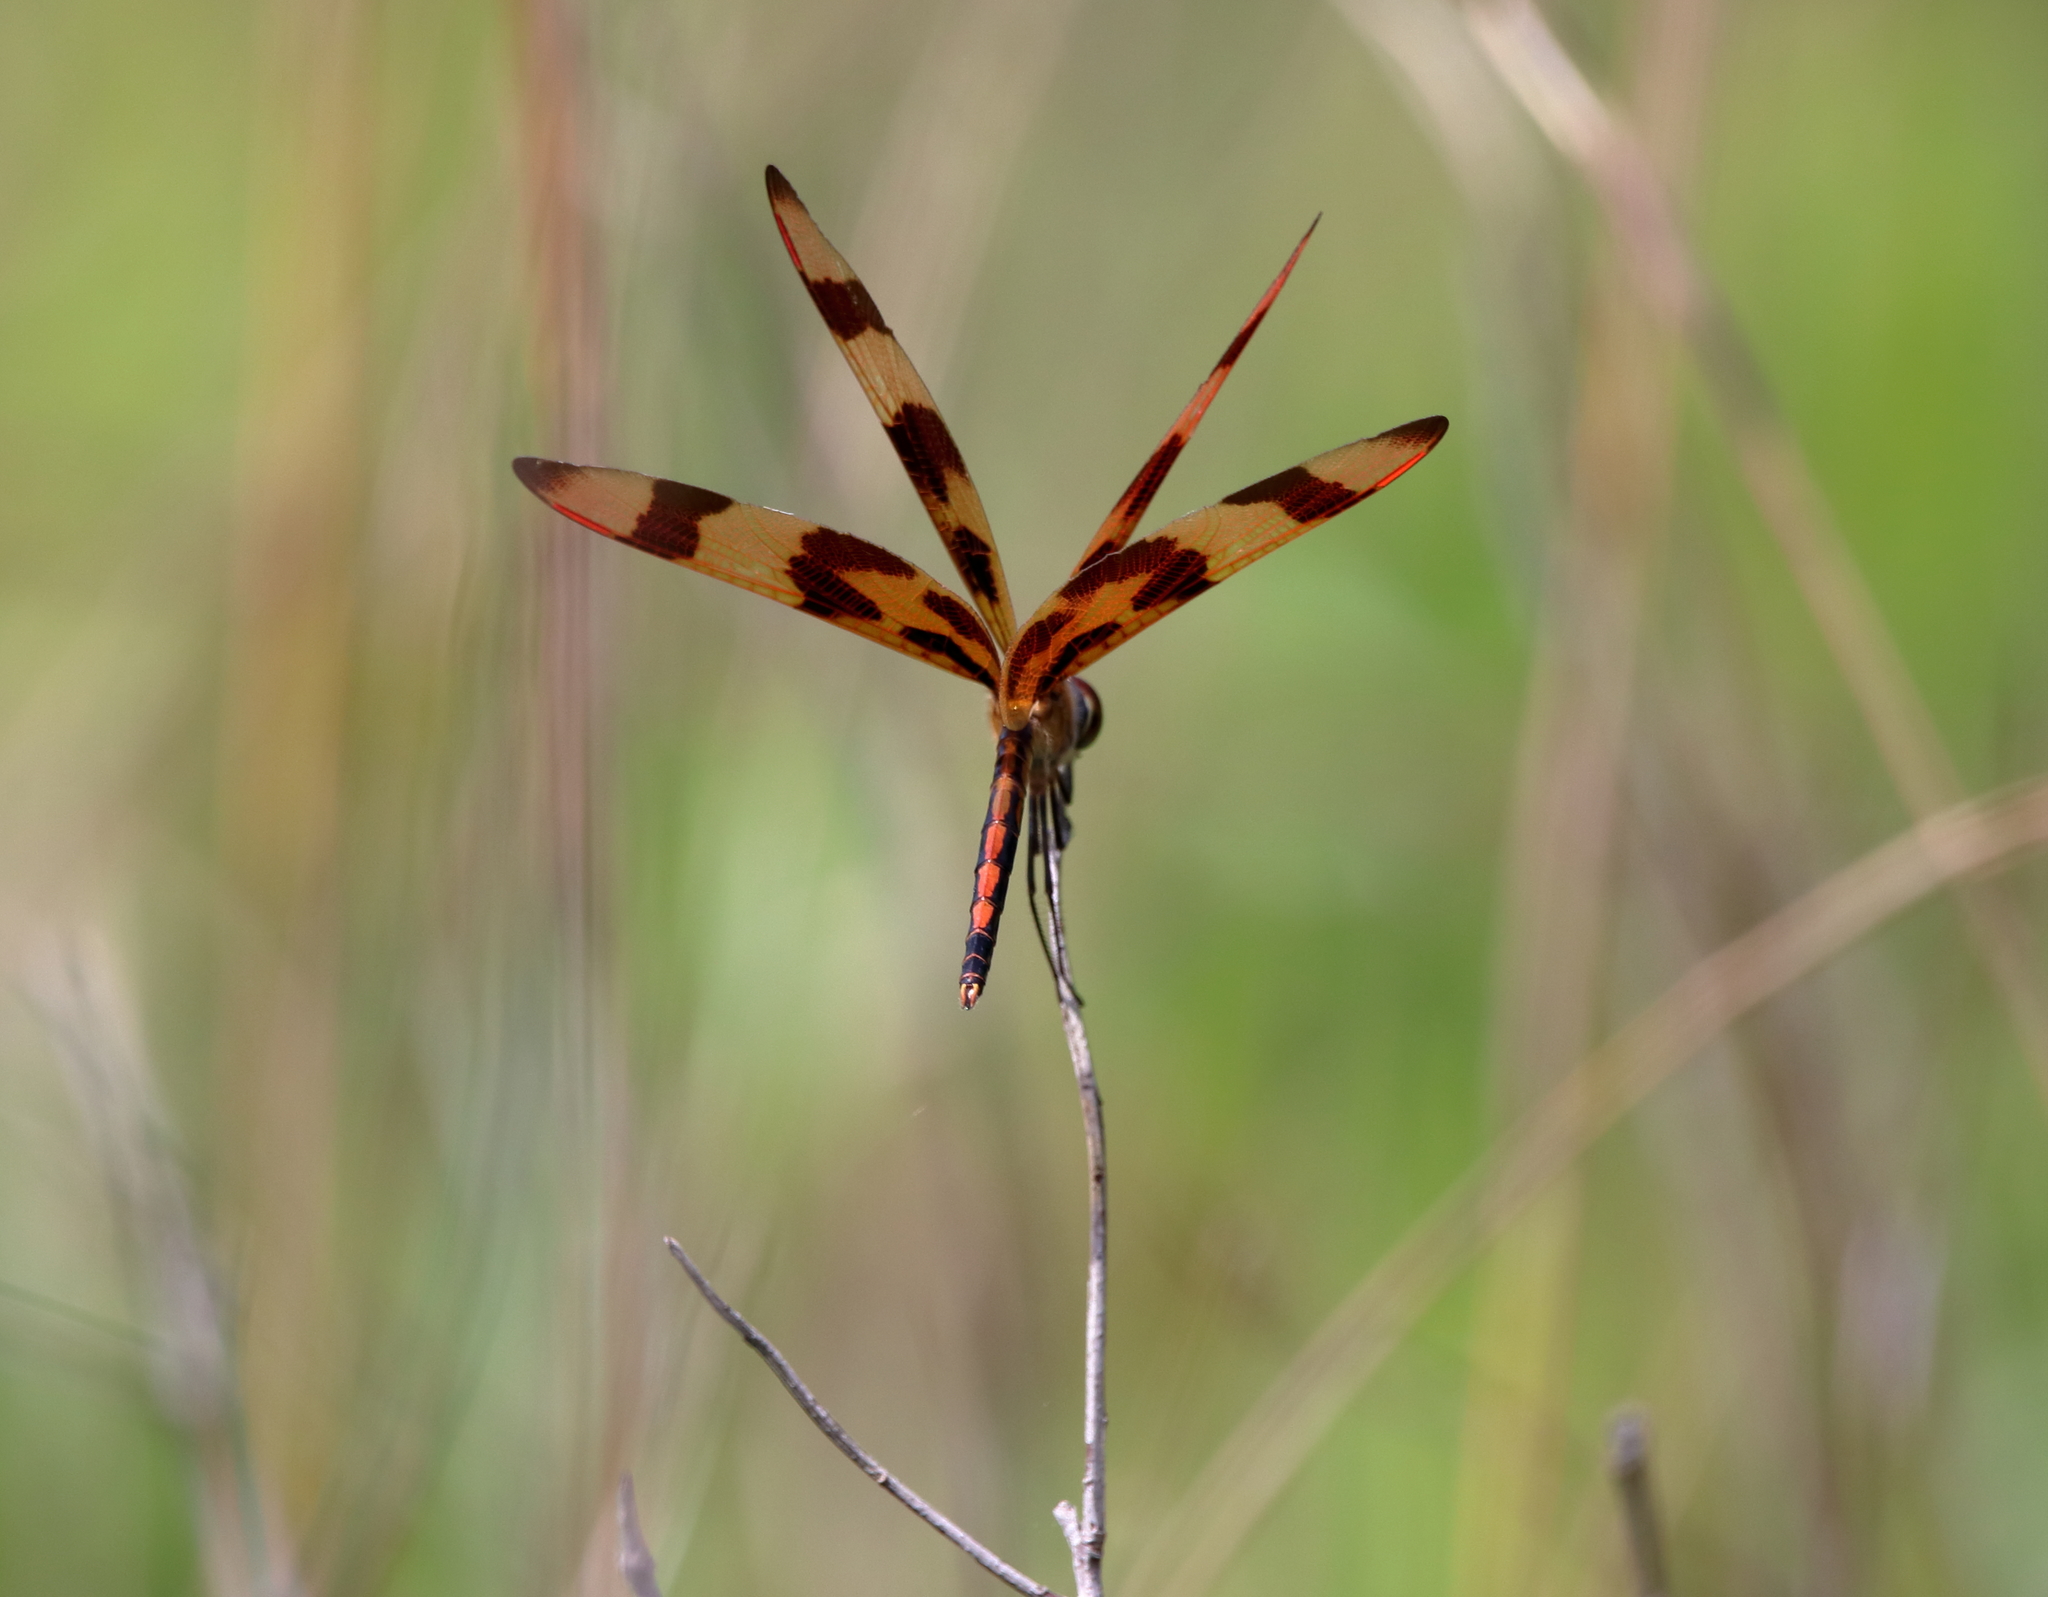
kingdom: Animalia
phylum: Arthropoda
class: Insecta
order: Odonata
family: Libellulidae
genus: Celithemis
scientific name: Celithemis eponina
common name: Halloween pennant
